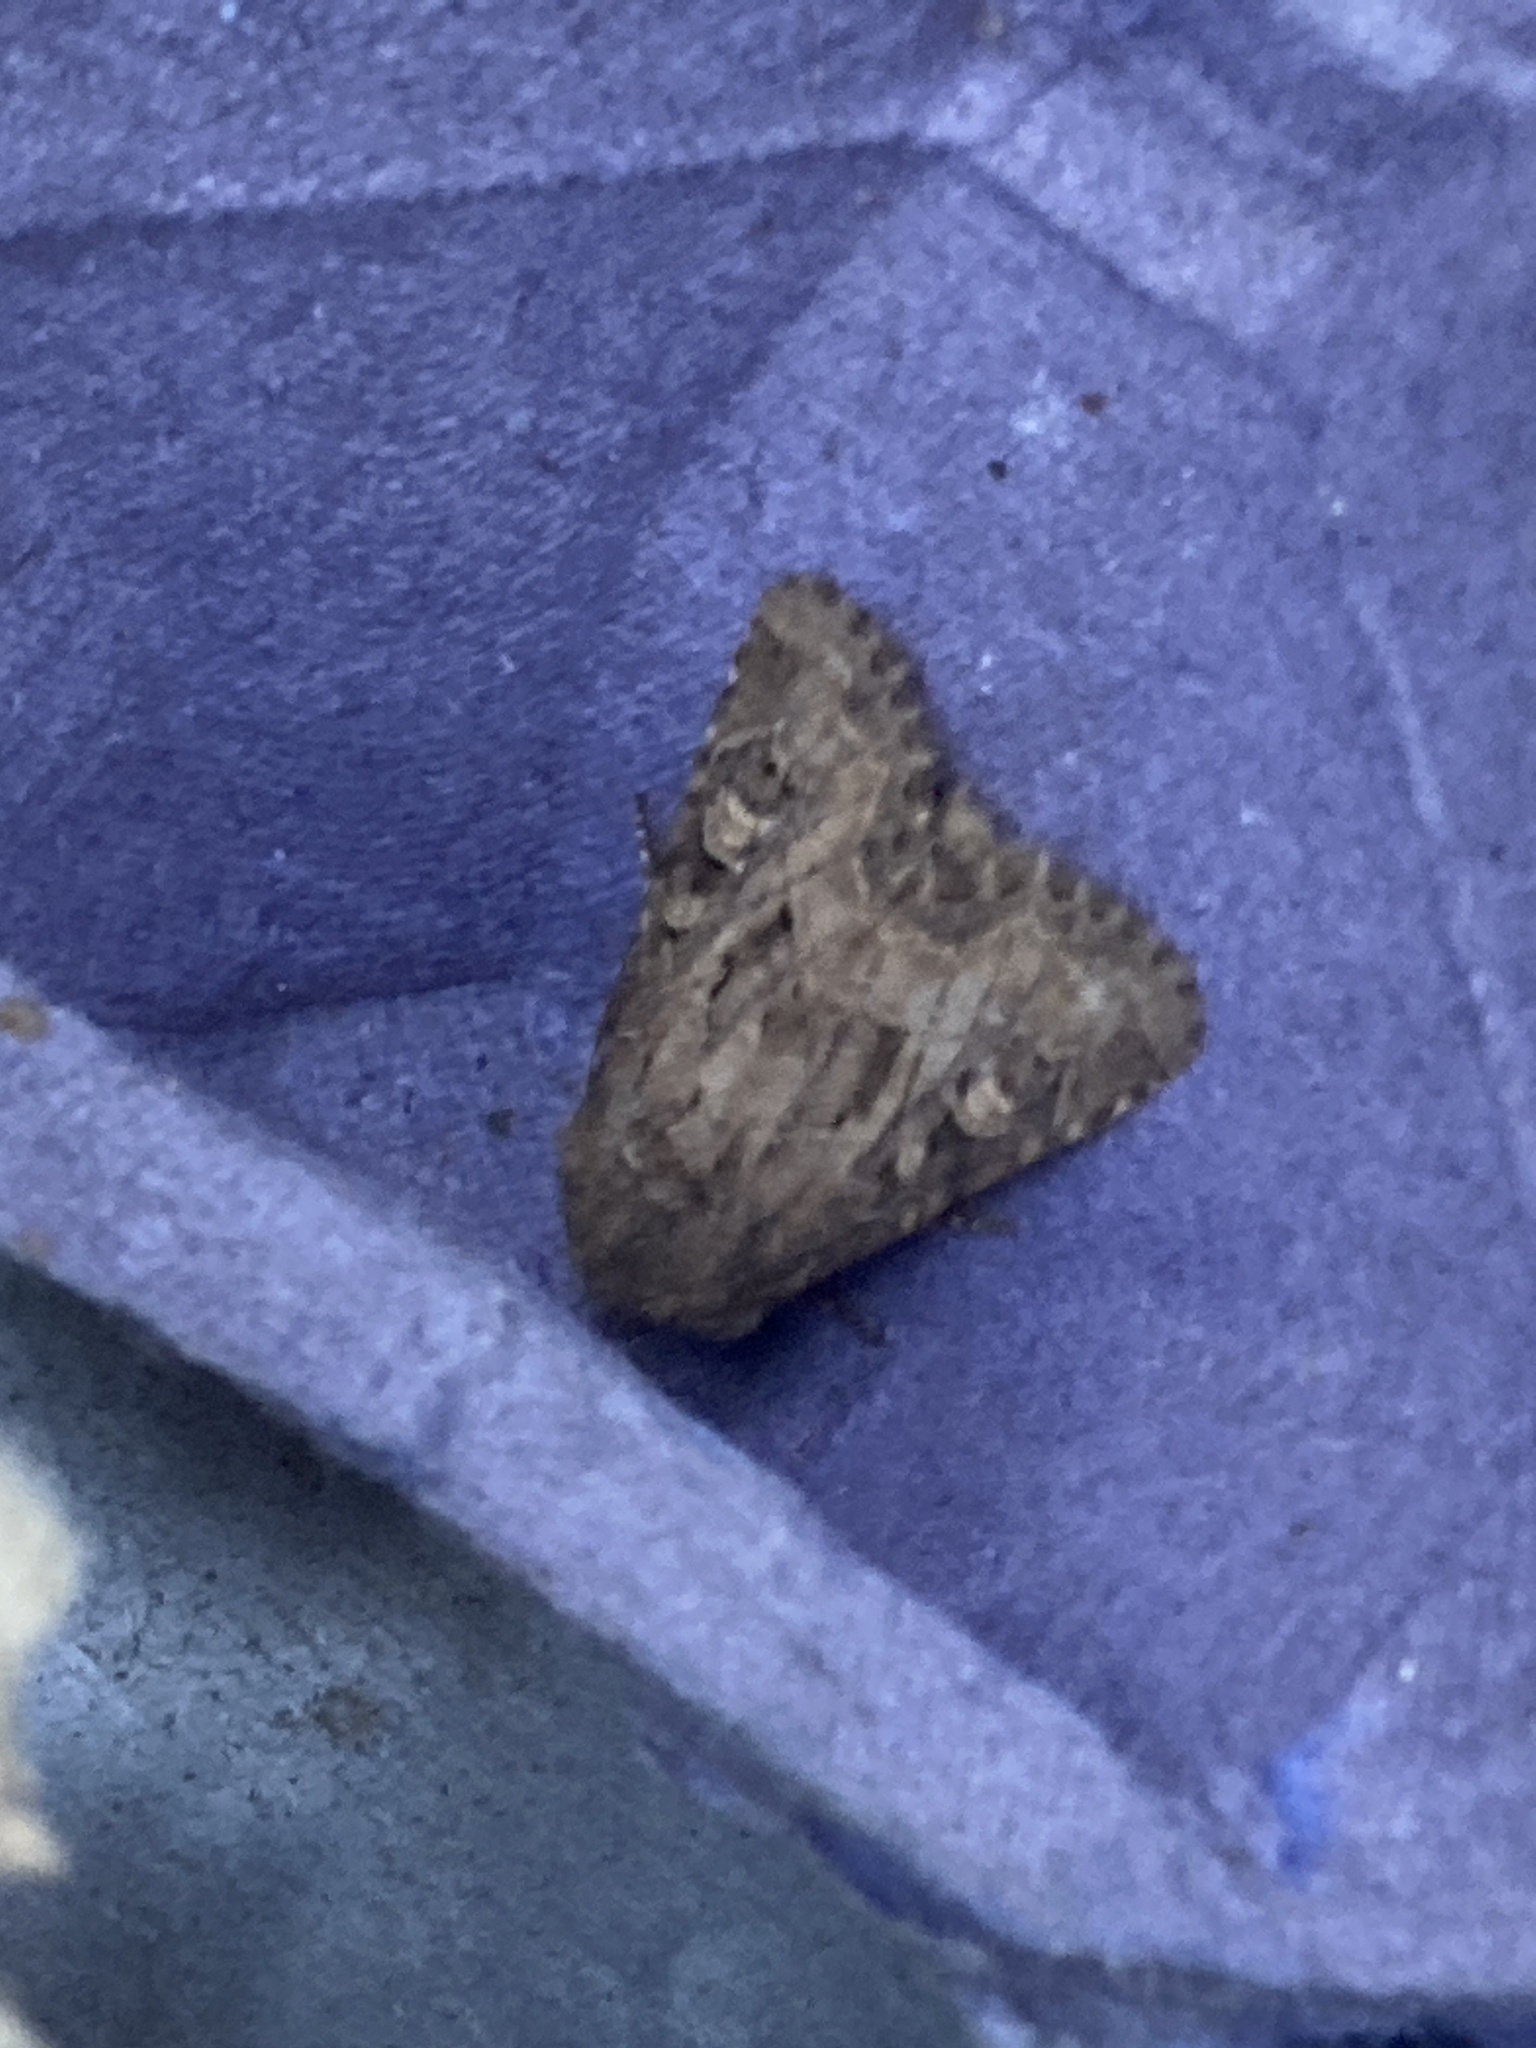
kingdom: Animalia
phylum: Arthropoda
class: Insecta
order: Lepidoptera
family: Noctuidae
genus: Luperina
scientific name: Luperina testacea
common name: Flounced rustic
